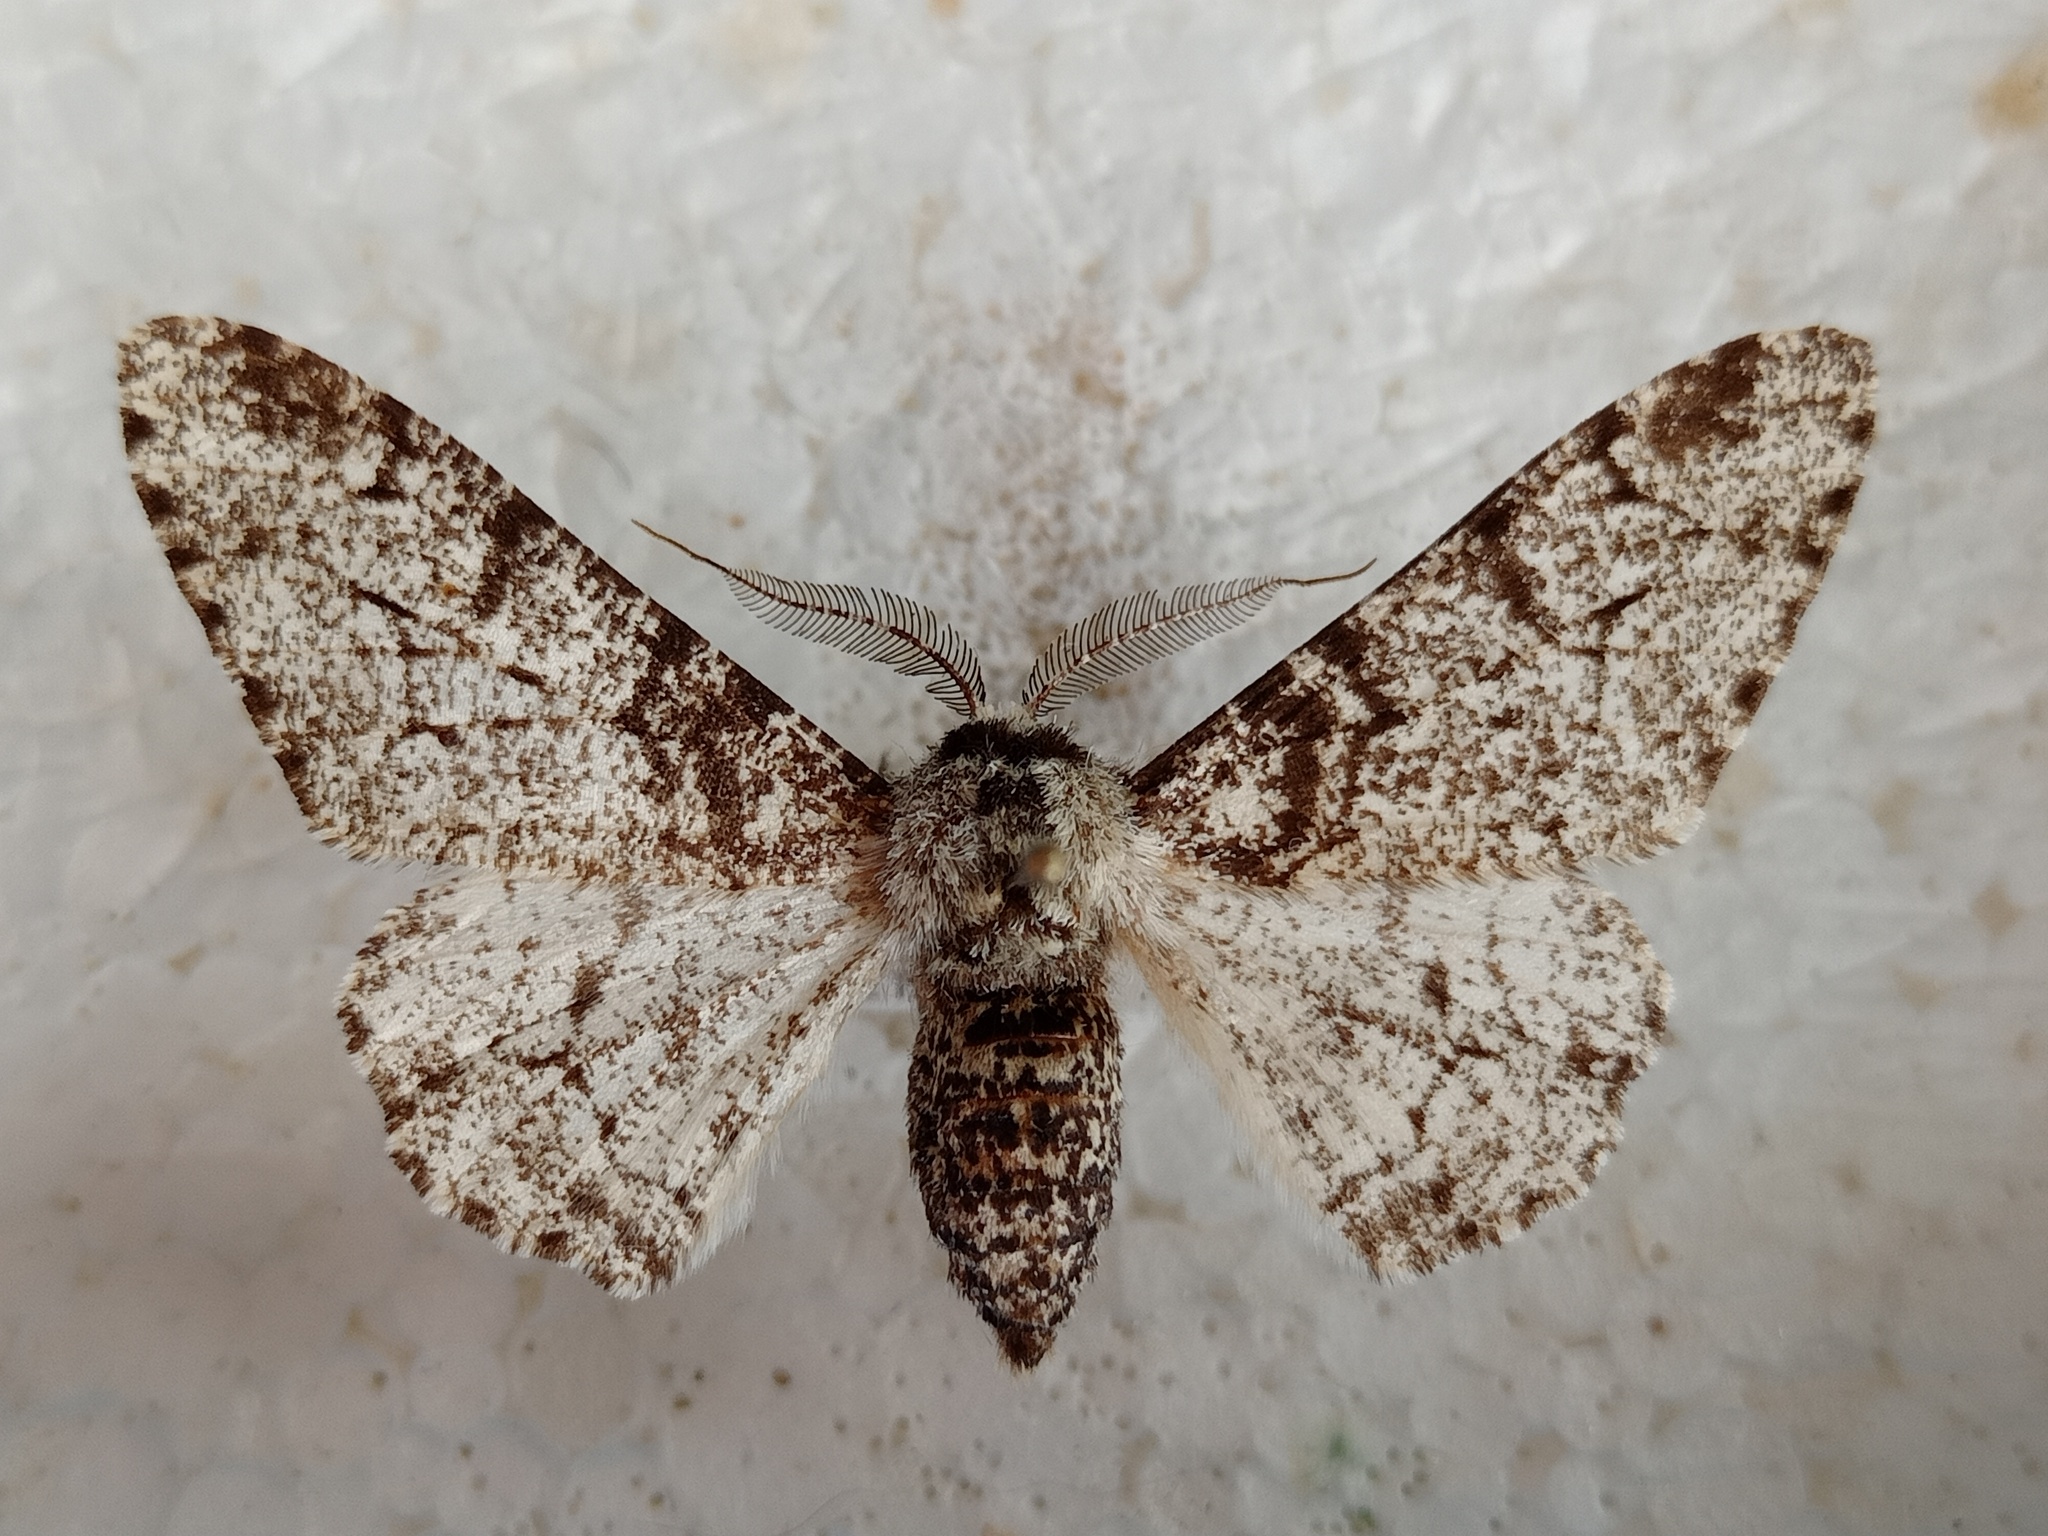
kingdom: Animalia
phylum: Arthropoda
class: Insecta
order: Lepidoptera
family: Geometridae
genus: Biston
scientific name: Biston betularia
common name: Peppered moth
